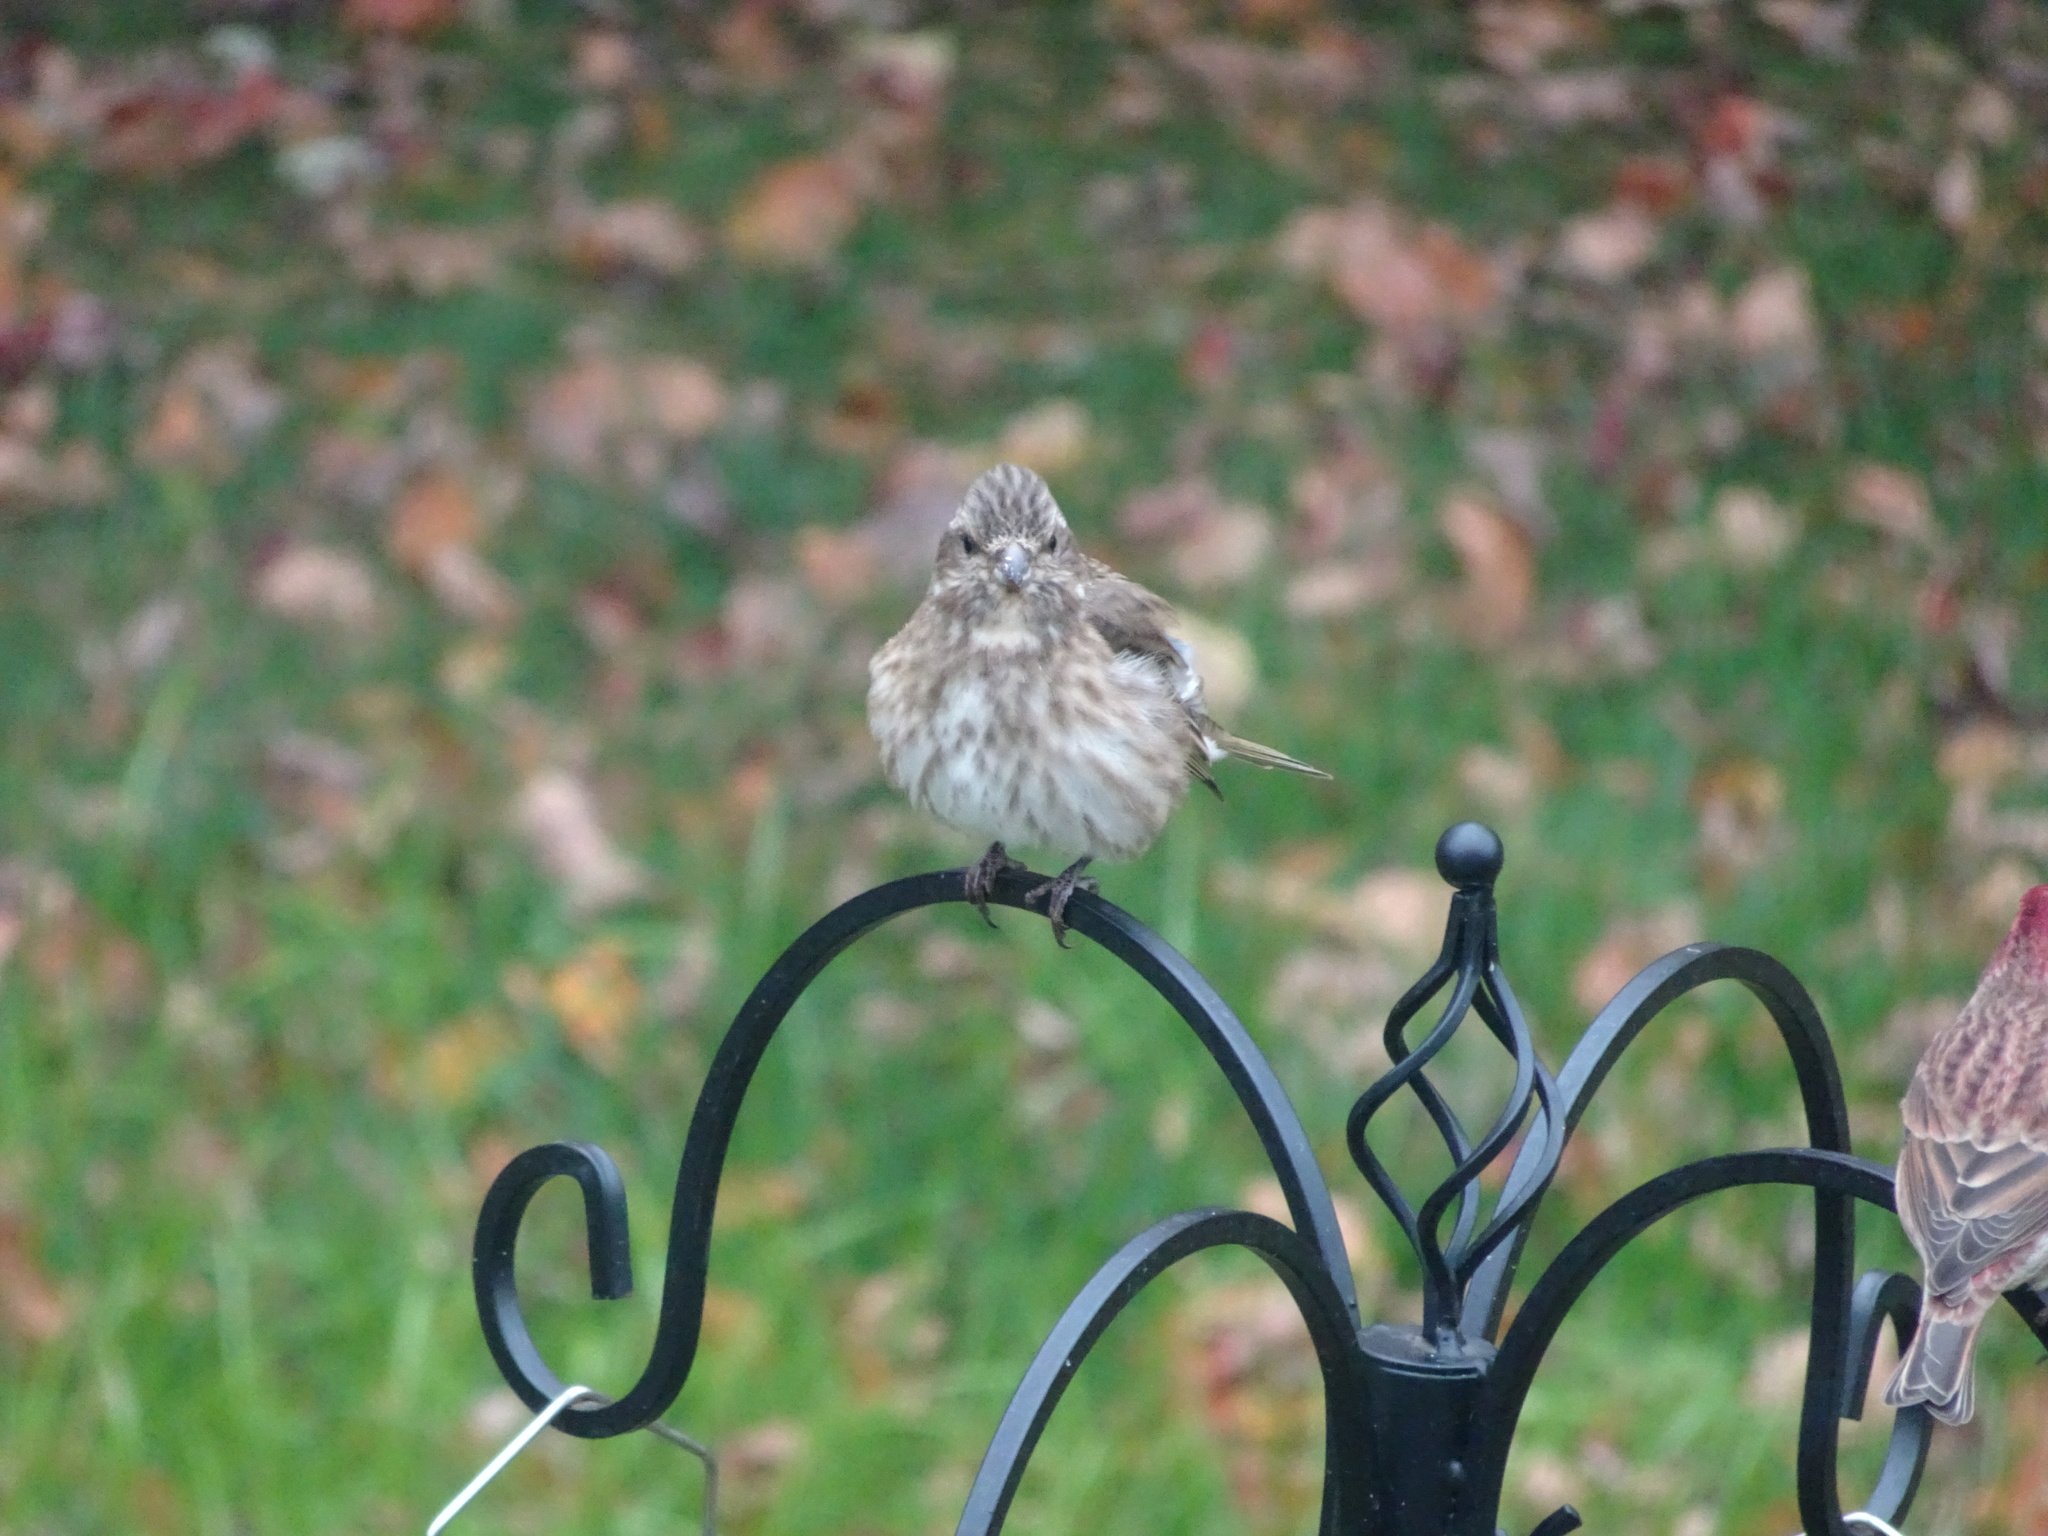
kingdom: Animalia
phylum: Chordata
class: Aves
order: Passeriformes
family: Fringillidae
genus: Haemorhous
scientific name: Haemorhous purpureus
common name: Purple finch
